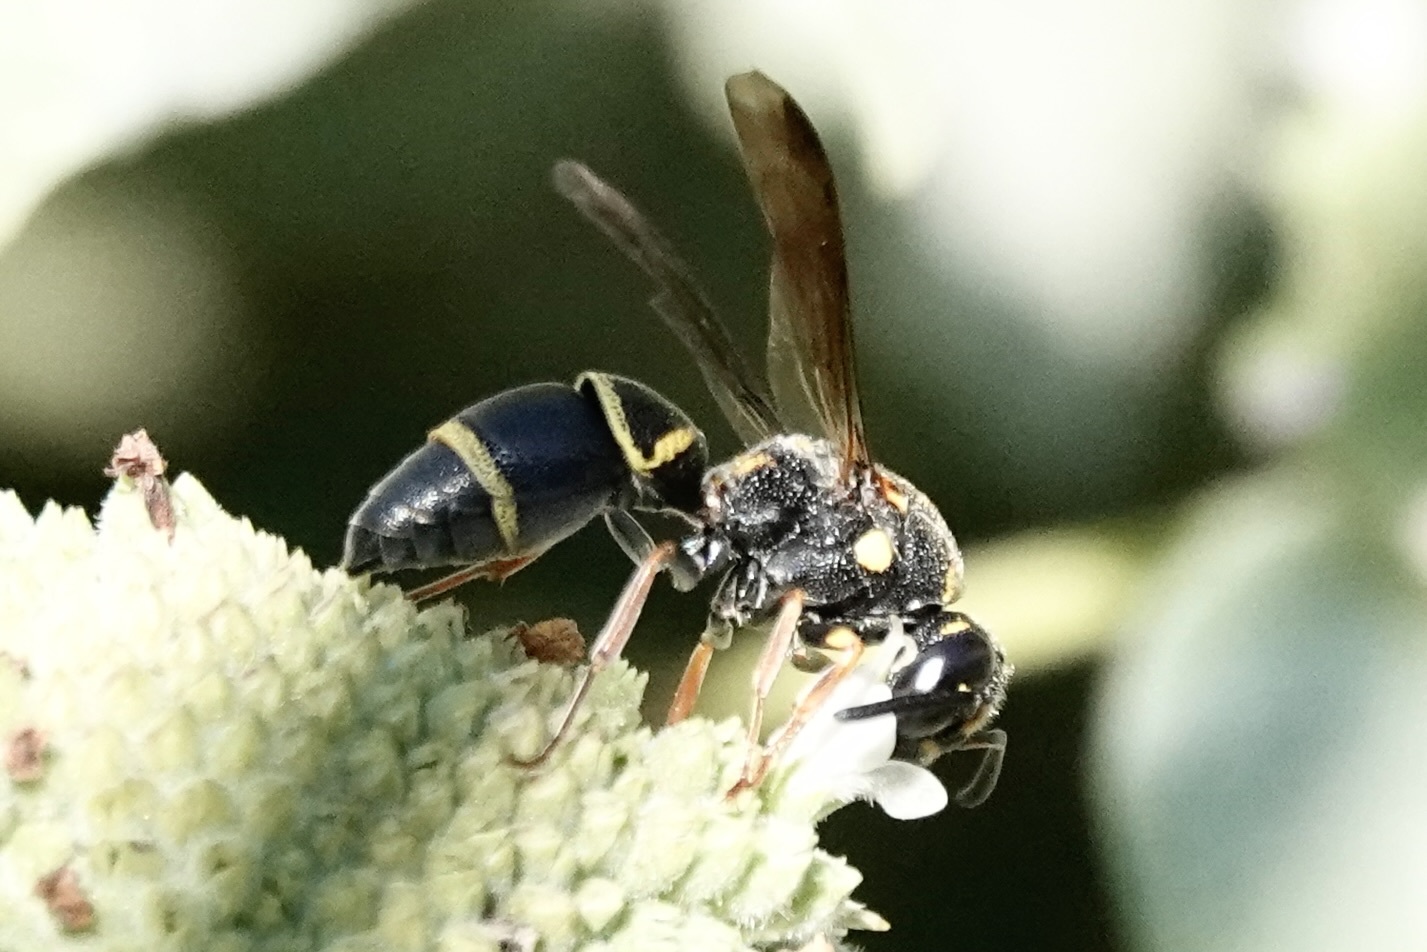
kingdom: Animalia
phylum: Arthropoda
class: Insecta
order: Hymenoptera
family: Eumenidae
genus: Parancistrocerus
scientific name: Parancistrocerus fulvipes
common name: Potter wasp
